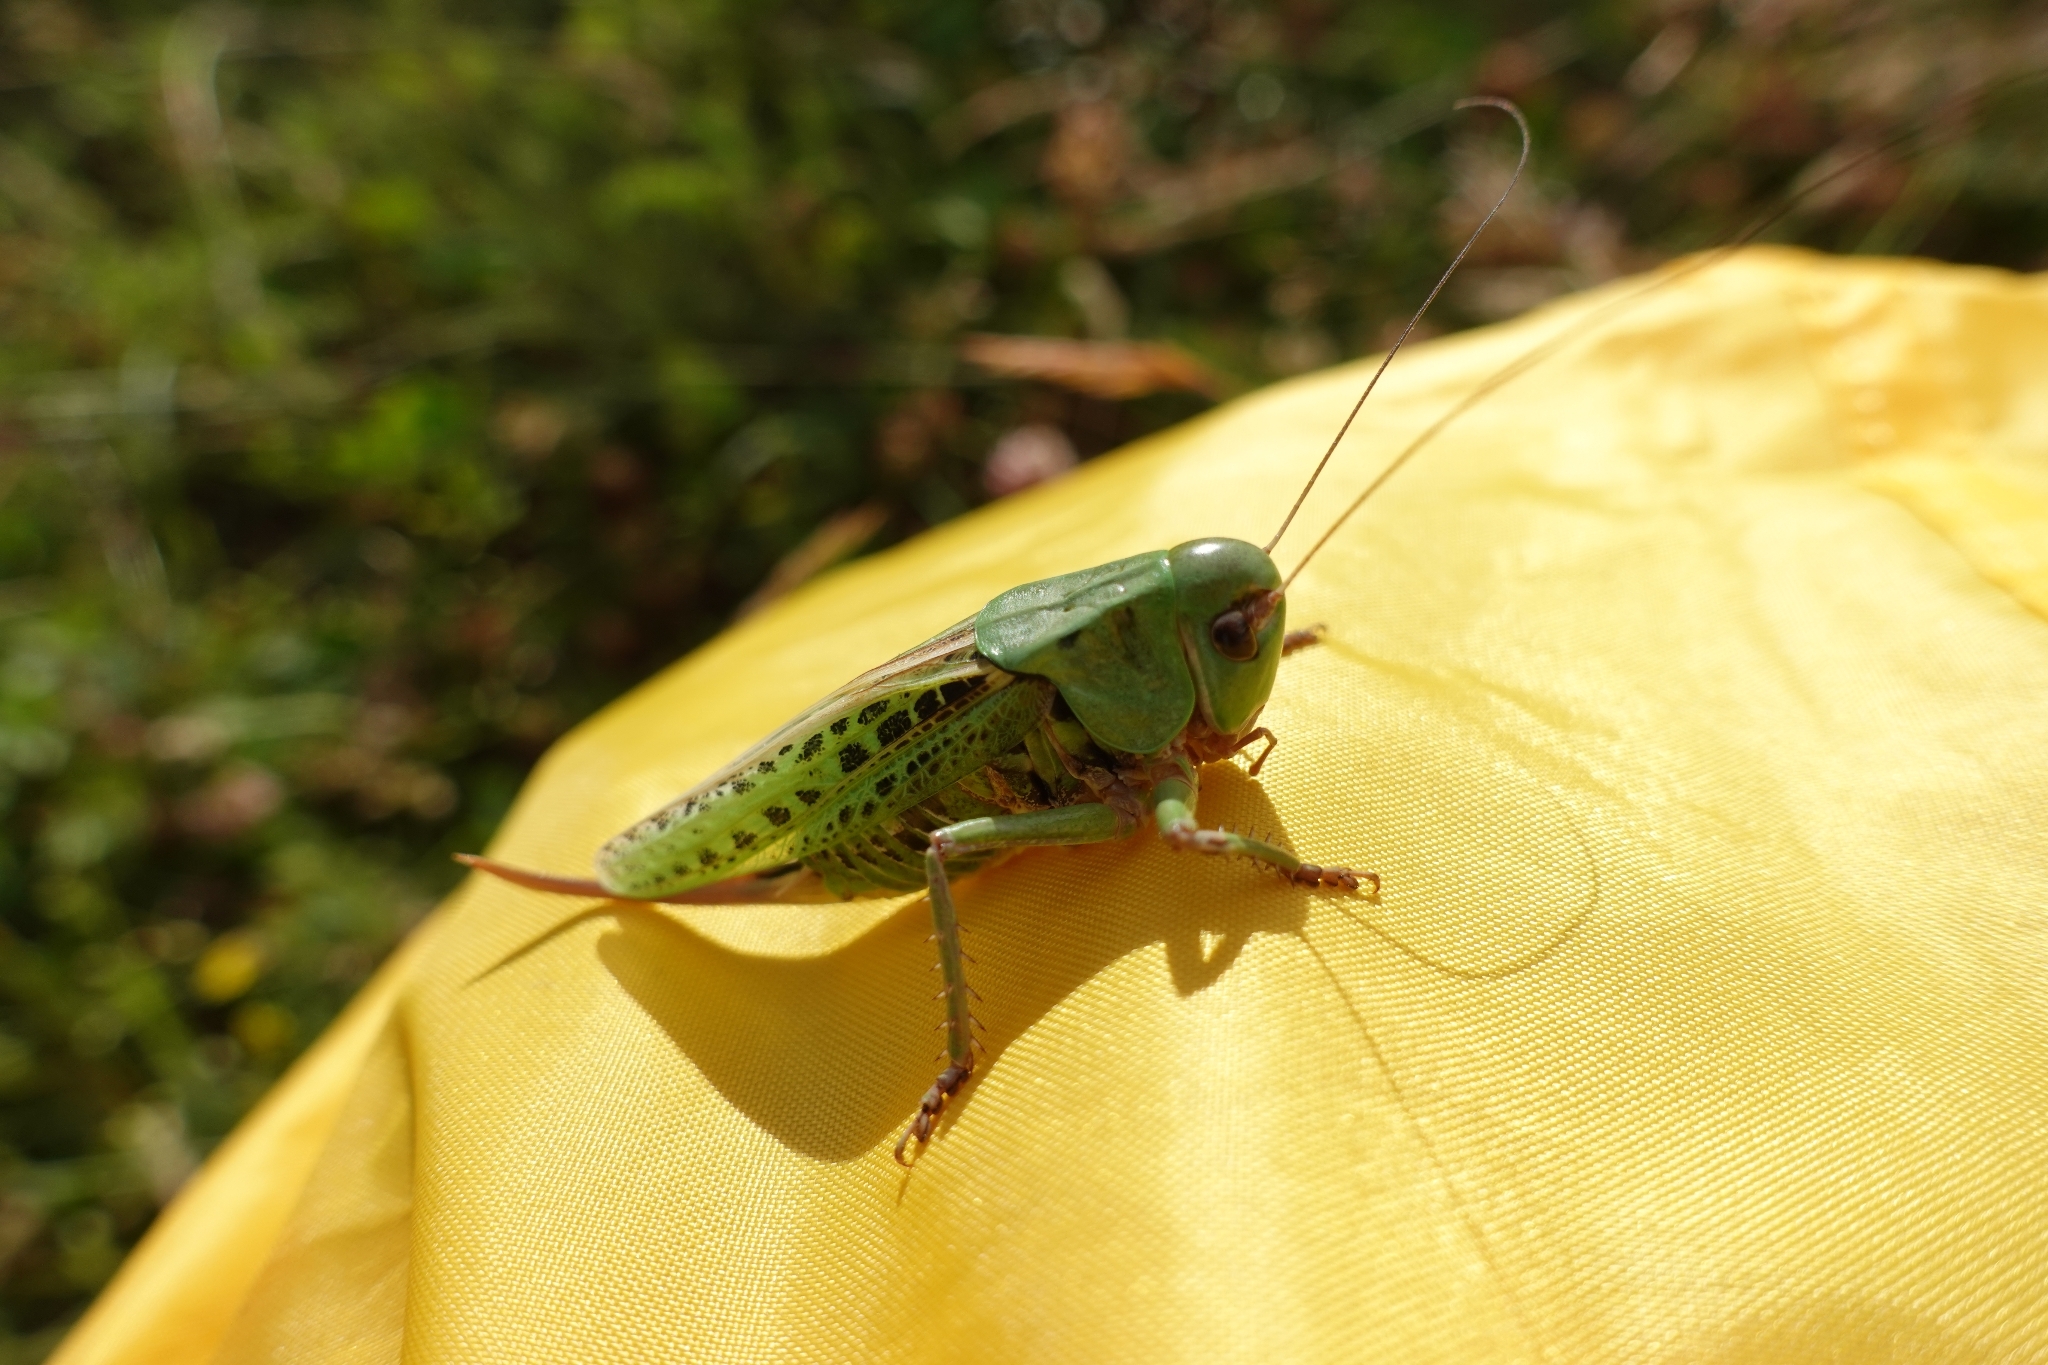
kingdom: Animalia
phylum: Arthropoda
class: Insecta
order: Orthoptera
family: Tettigoniidae
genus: Decticus
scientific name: Decticus verrucivorus
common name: Wart-biter
